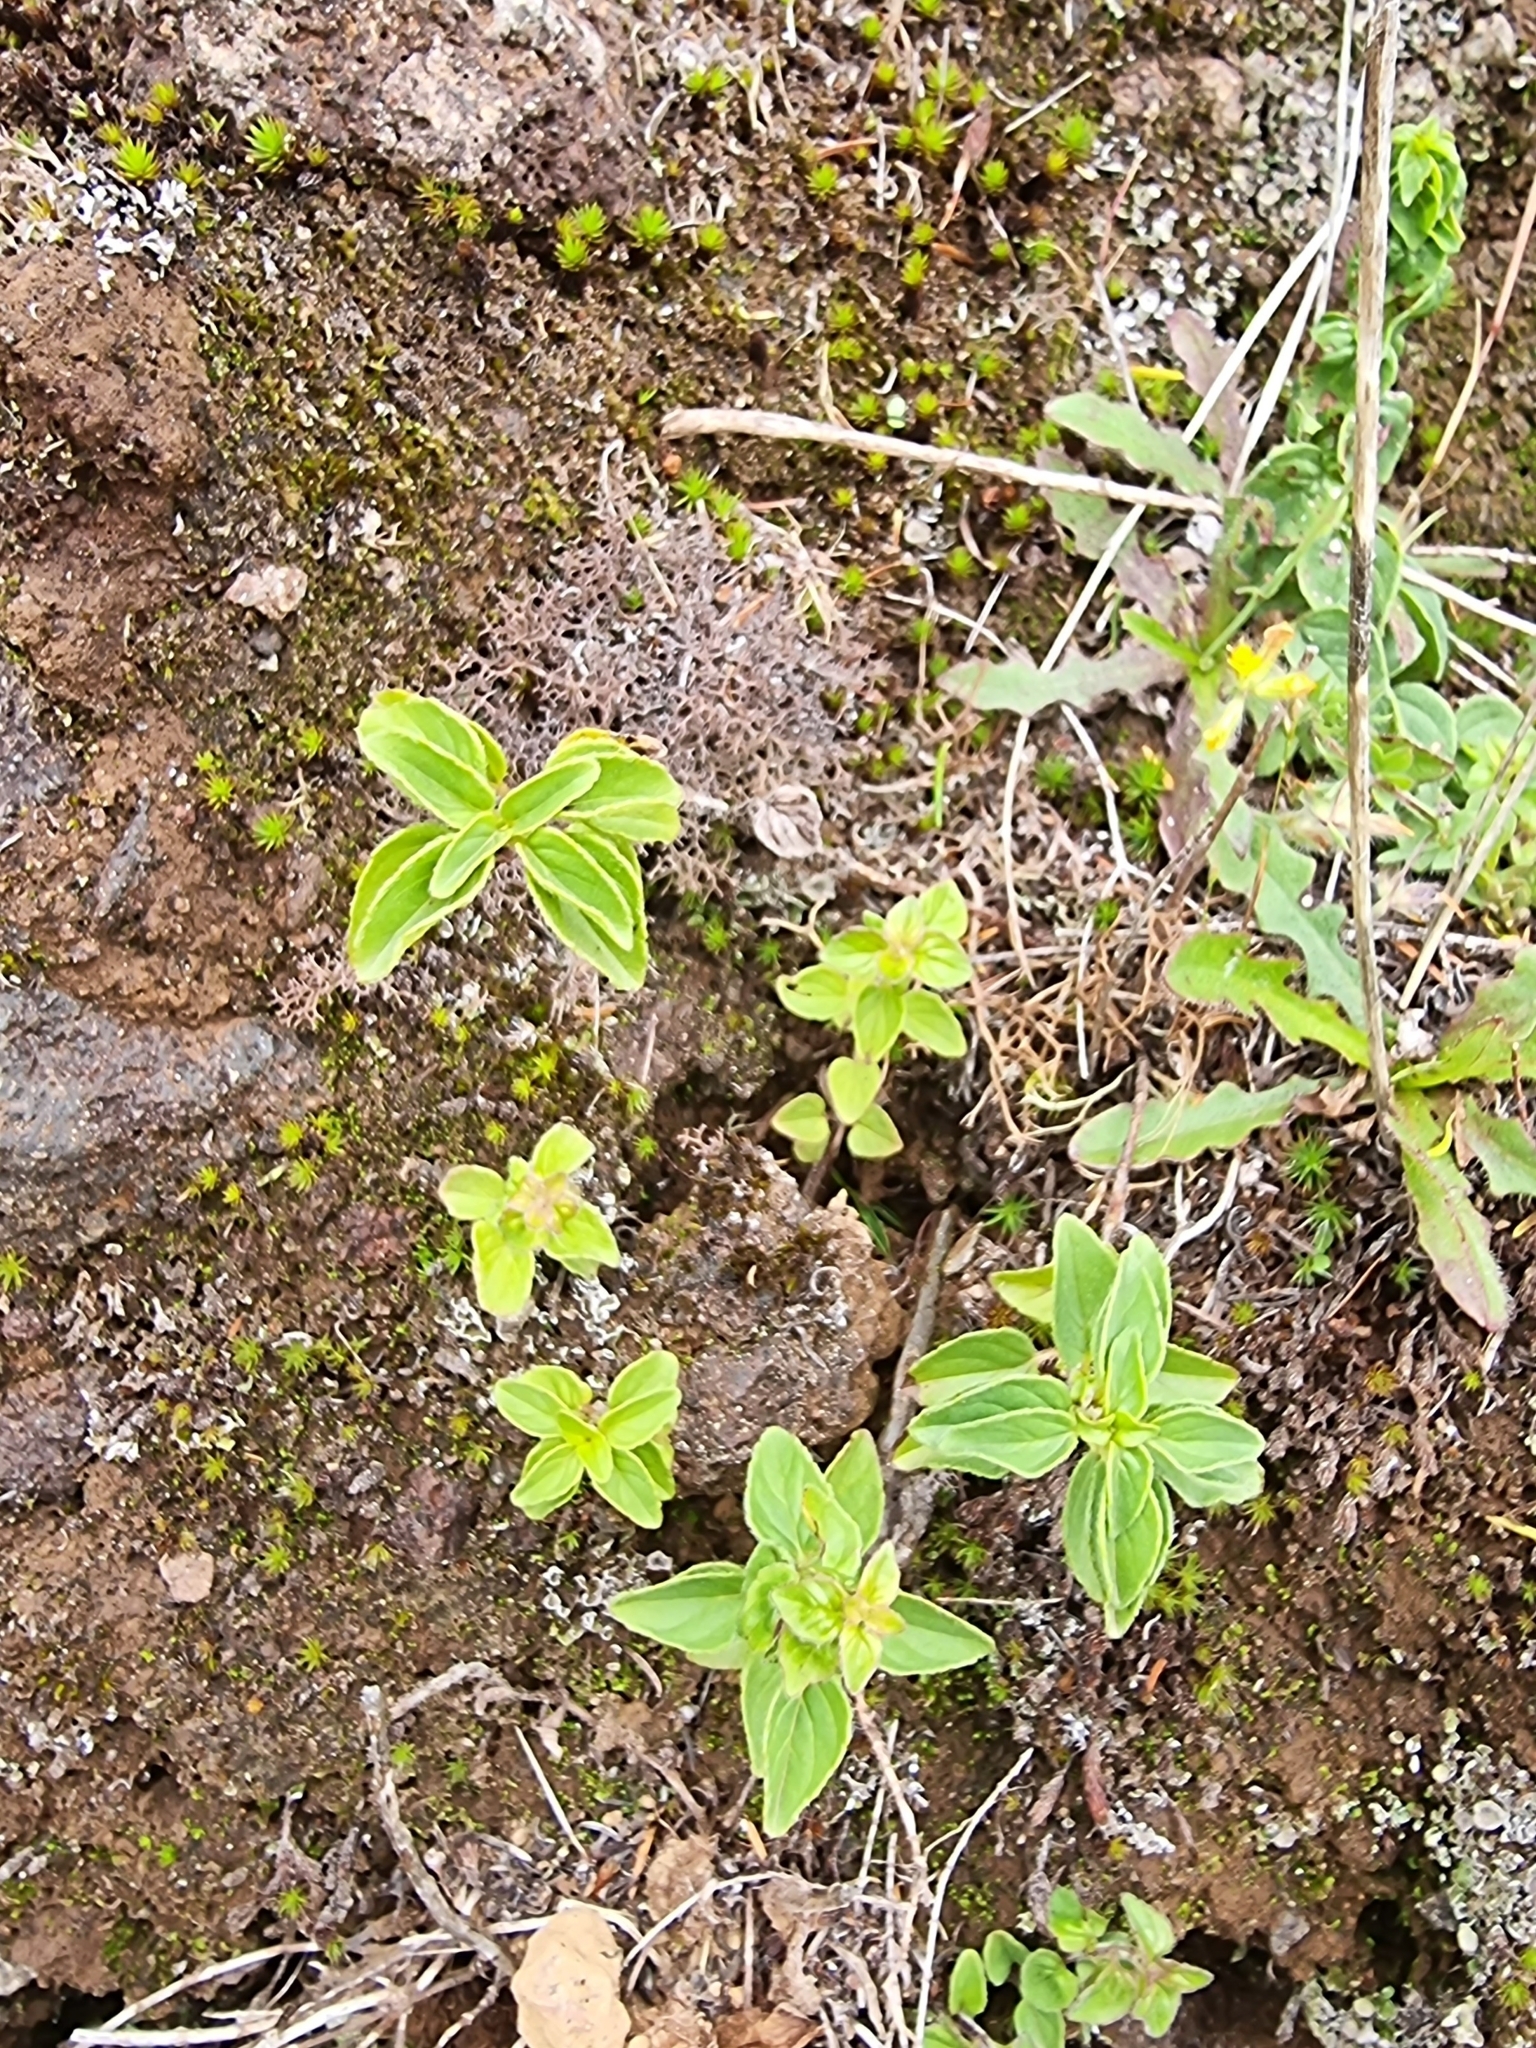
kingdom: Plantae
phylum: Tracheophyta
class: Magnoliopsida
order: Lamiales
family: Lamiaceae
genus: Origanum
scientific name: Origanum vulgare
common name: Wild marjoram
